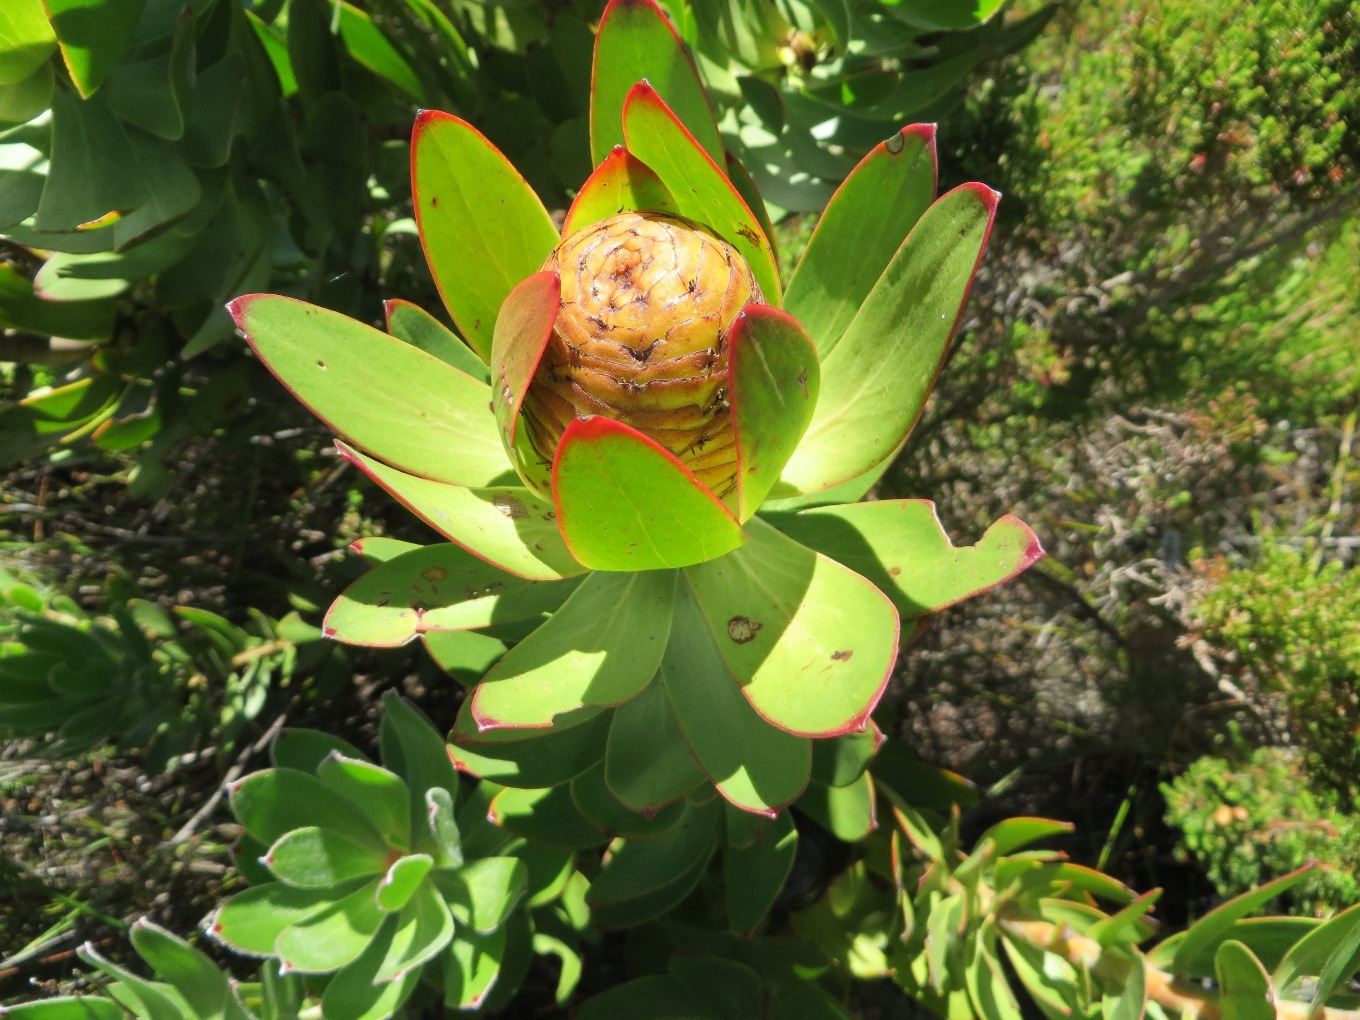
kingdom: Plantae
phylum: Tracheophyta
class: Magnoliopsida
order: Proteales
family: Proteaceae
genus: Leucadendron
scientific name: Leucadendron gandogeri
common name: Broad-leaf conebush
